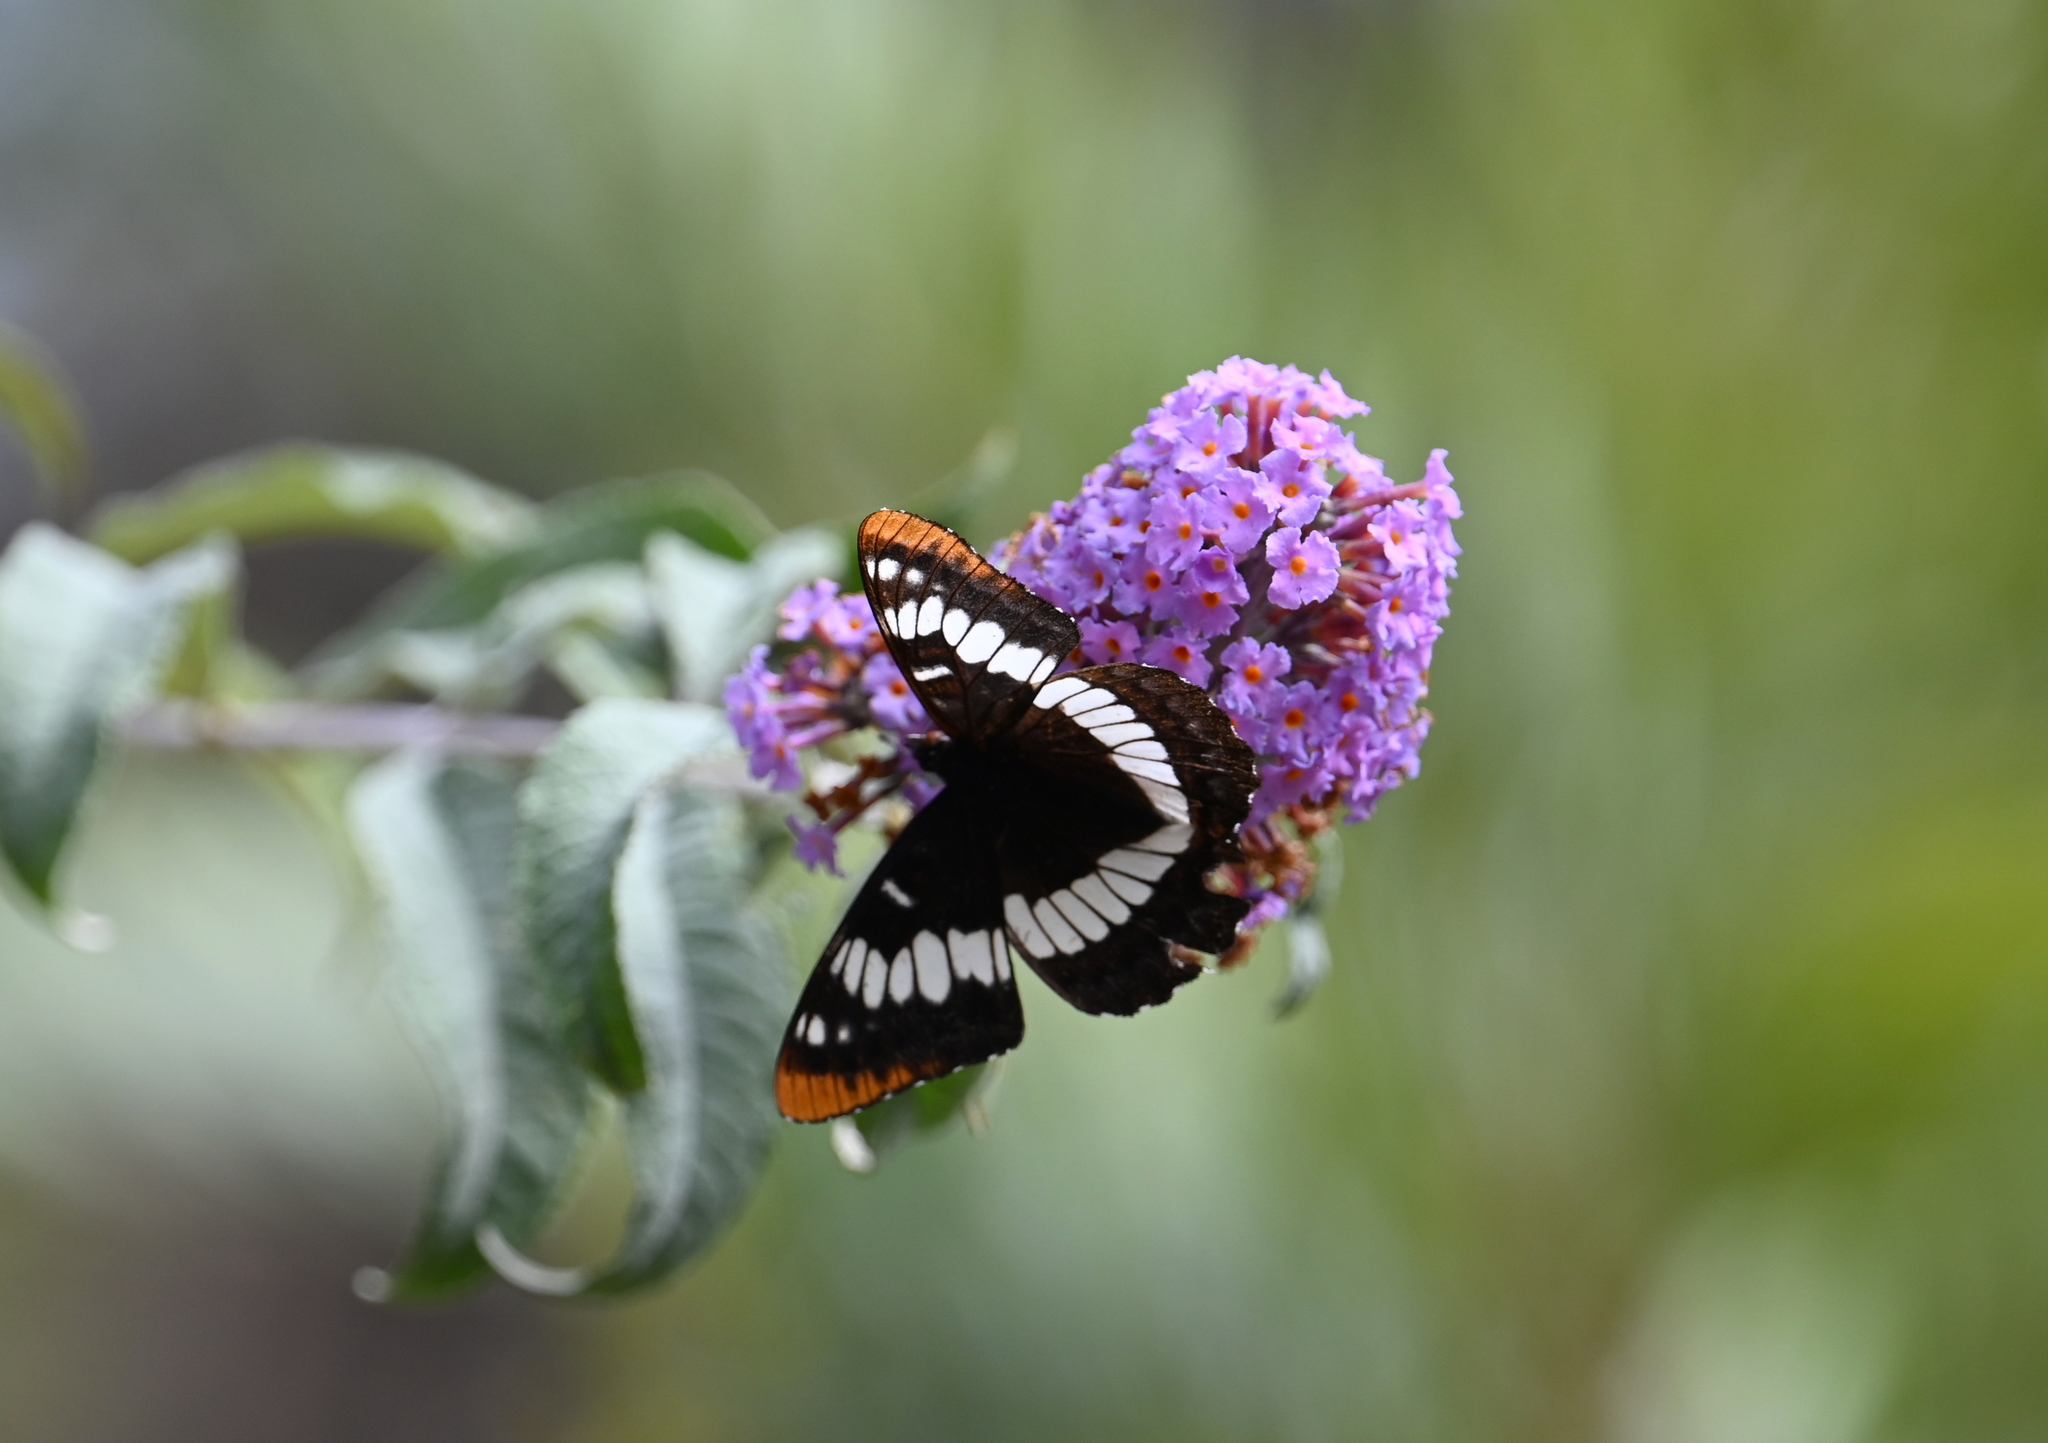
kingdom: Animalia
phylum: Arthropoda
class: Insecta
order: Lepidoptera
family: Nymphalidae
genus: Limenitis
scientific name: Limenitis lorquini
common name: Lorquin's admiral
